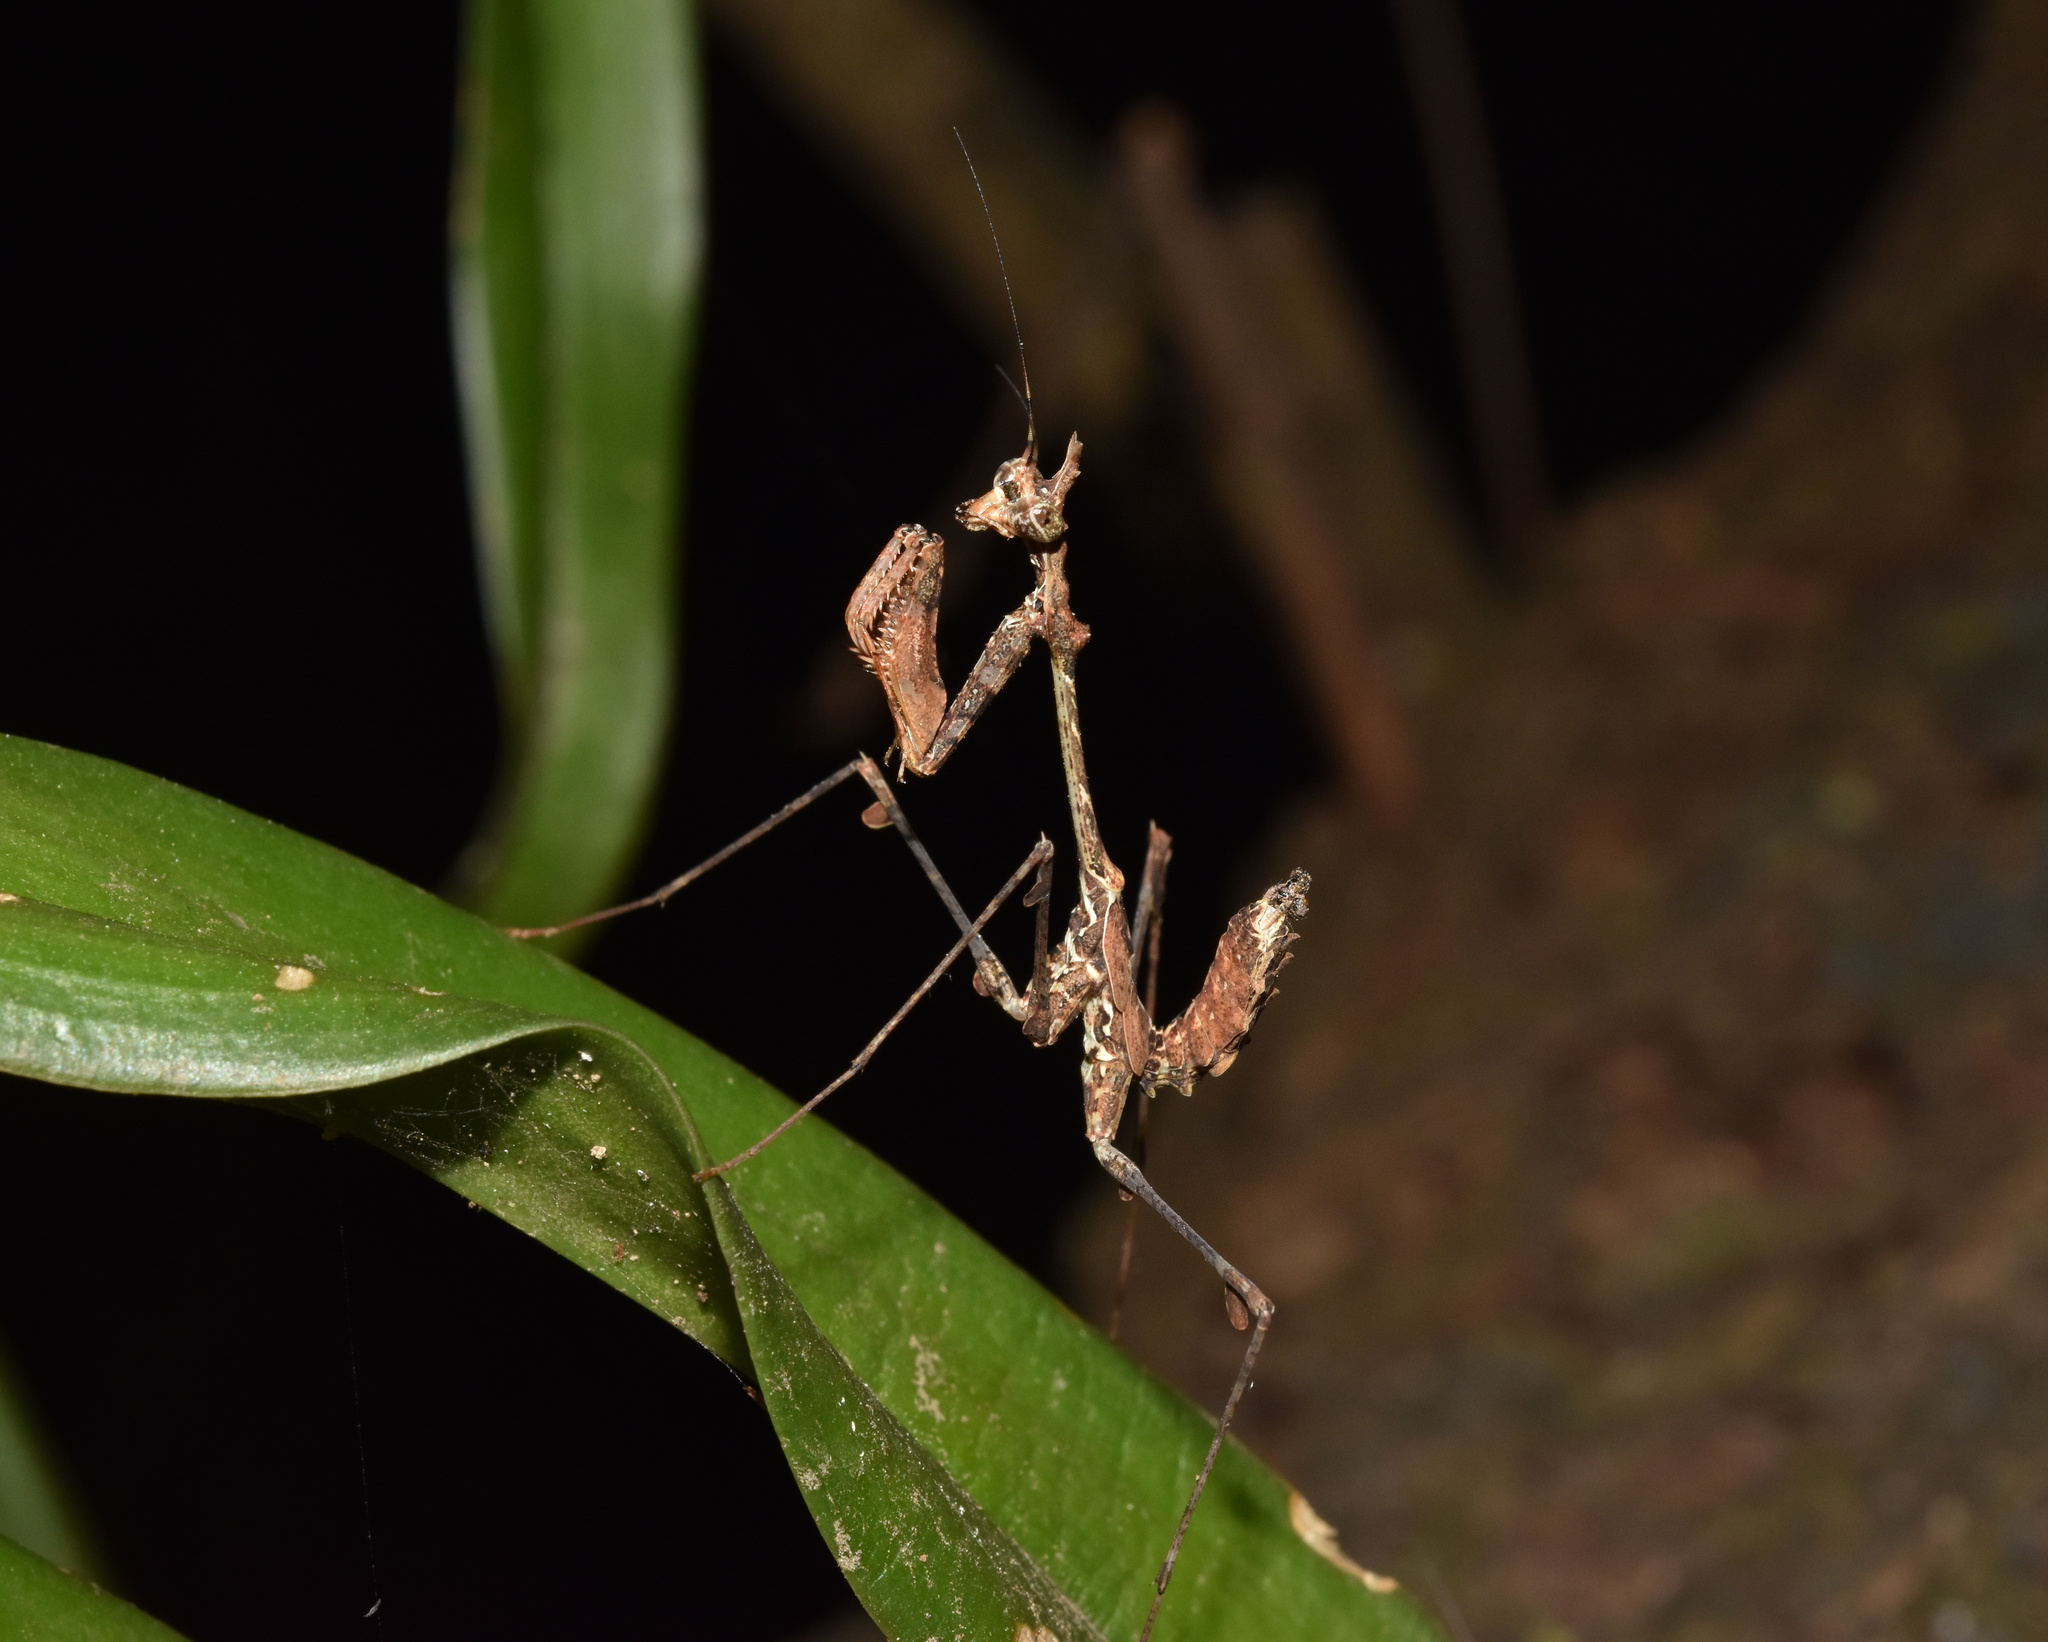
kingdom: Animalia
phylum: Arthropoda
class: Insecta
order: Mantodea
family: Hymenopodidae
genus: Sibylla
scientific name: Sibylla pretiosa
